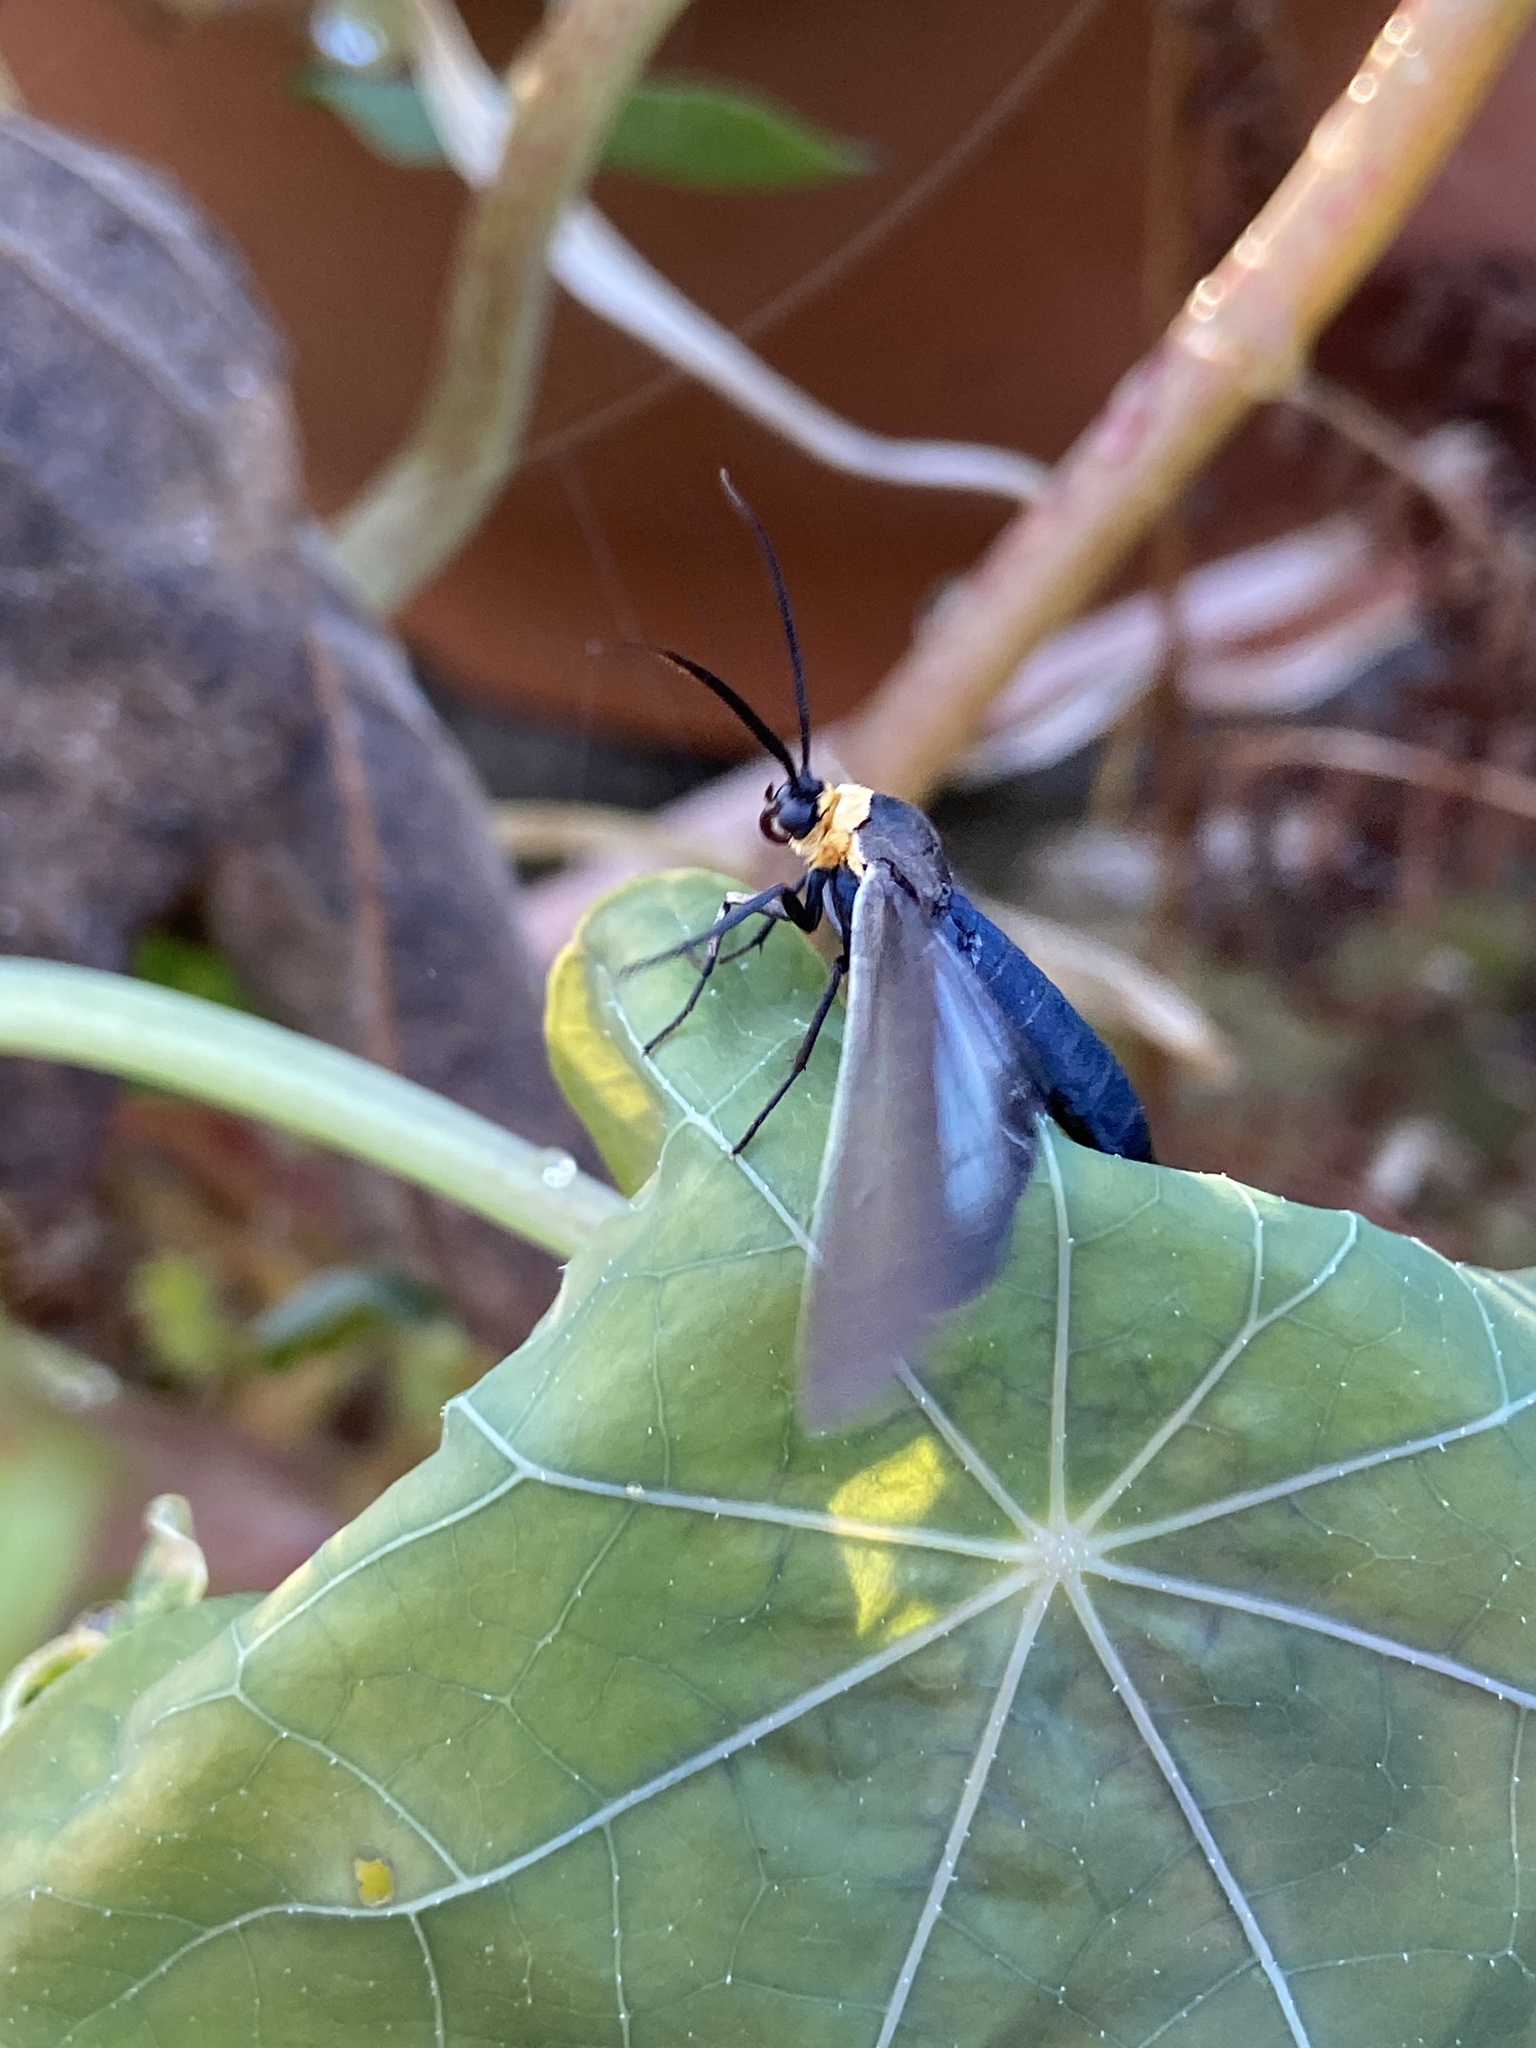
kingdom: Animalia
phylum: Arthropoda
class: Insecta
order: Lepidoptera
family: Erebidae
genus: Cisseps
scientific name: Cisseps fulvicollis
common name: Yellow-collared scape moth
